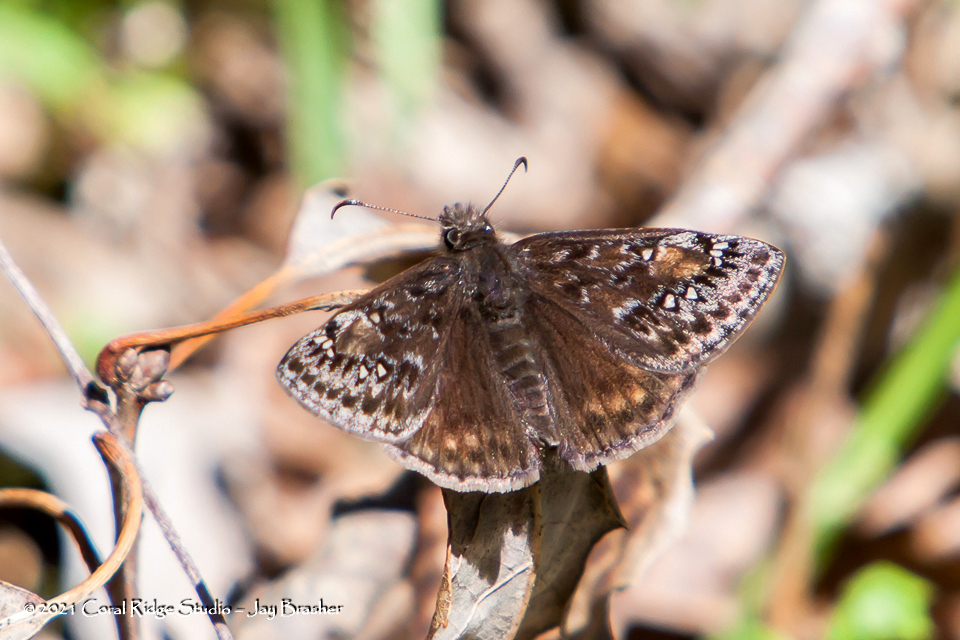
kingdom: Animalia
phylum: Arthropoda
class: Insecta
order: Lepidoptera
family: Hesperiidae
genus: Erynnis
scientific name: Erynnis juvenalis
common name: Juvenal's duskywing
